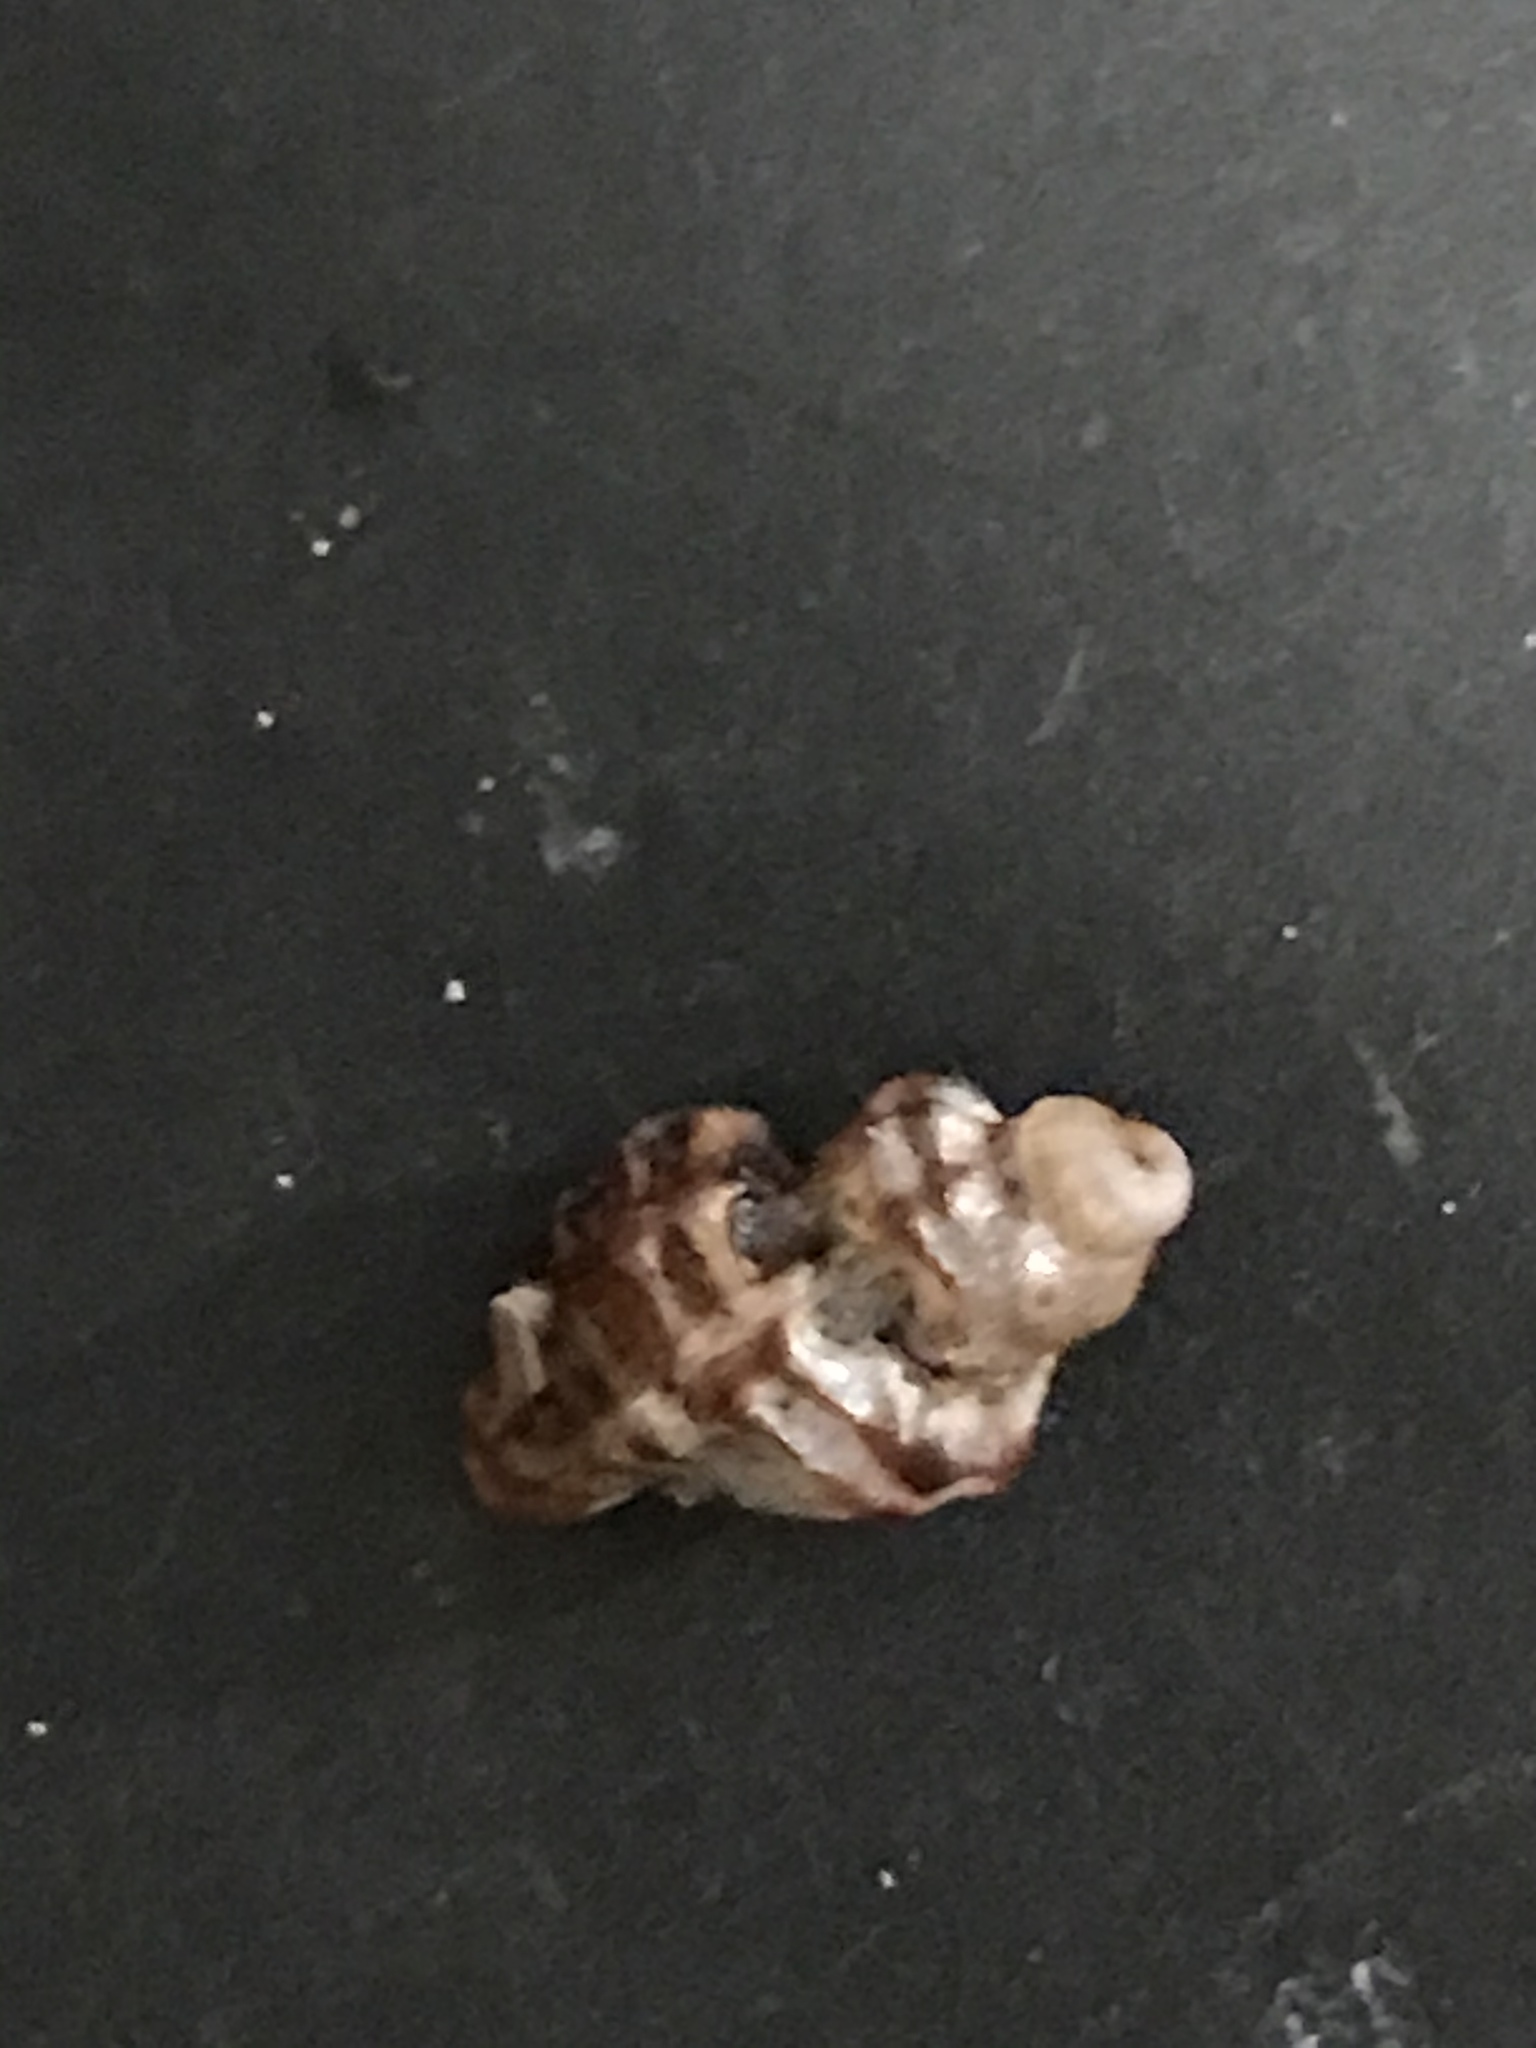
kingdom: Animalia
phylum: Mollusca
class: Gastropoda
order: Neogastropoda
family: Muricidae
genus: Paciocinebrina
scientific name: Paciocinebrina atropurpurea
